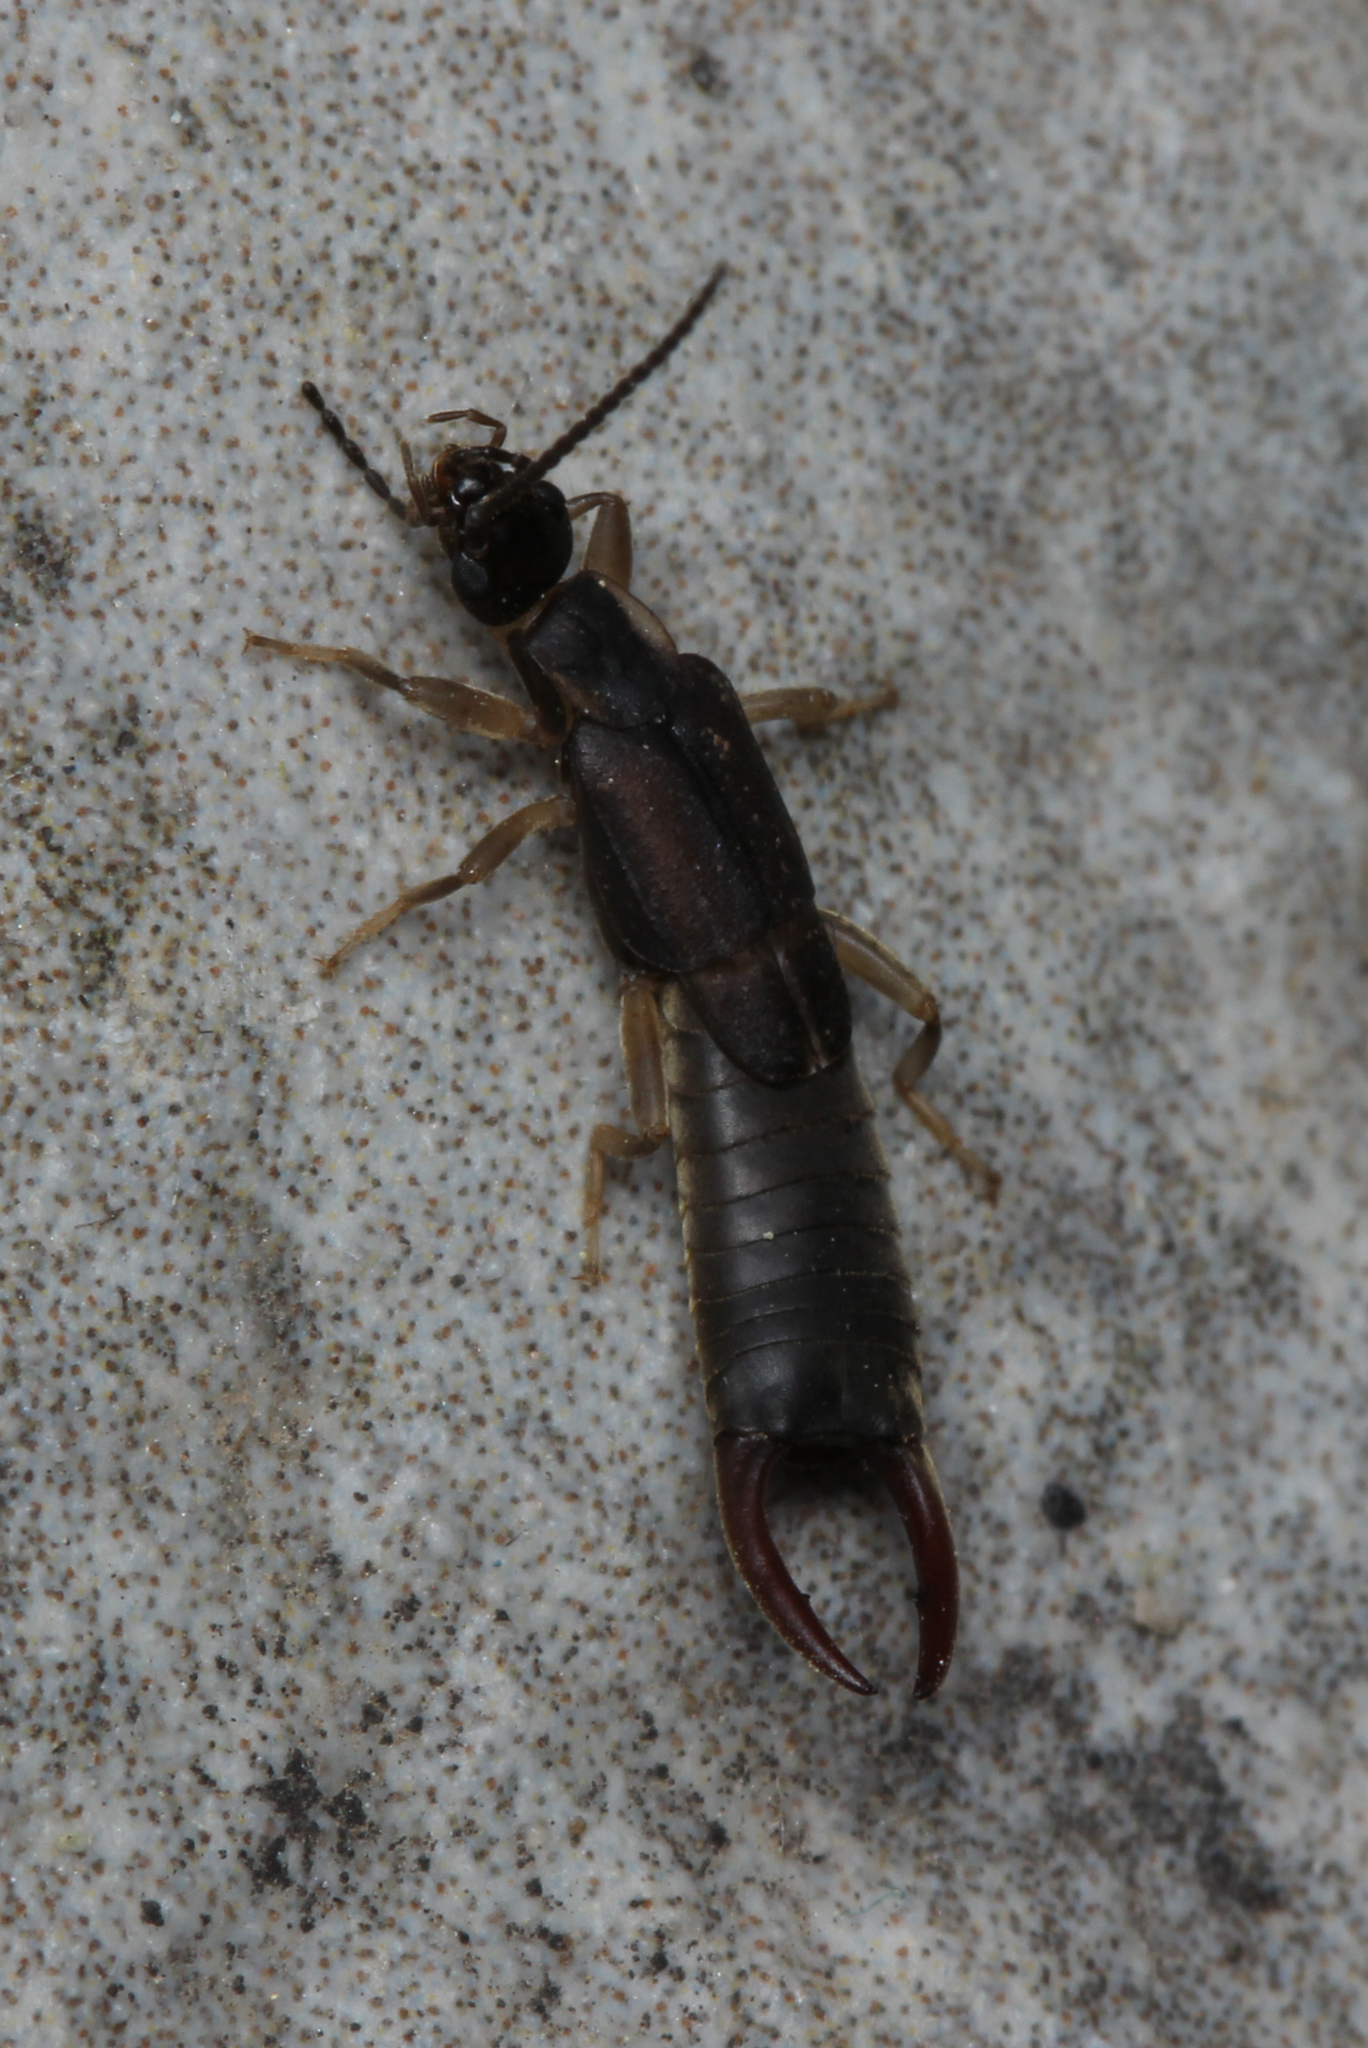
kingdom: Animalia
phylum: Arthropoda
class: Insecta
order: Dermaptera
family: Labiduridae
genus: Nala
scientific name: Nala lividipes
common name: Earwig
